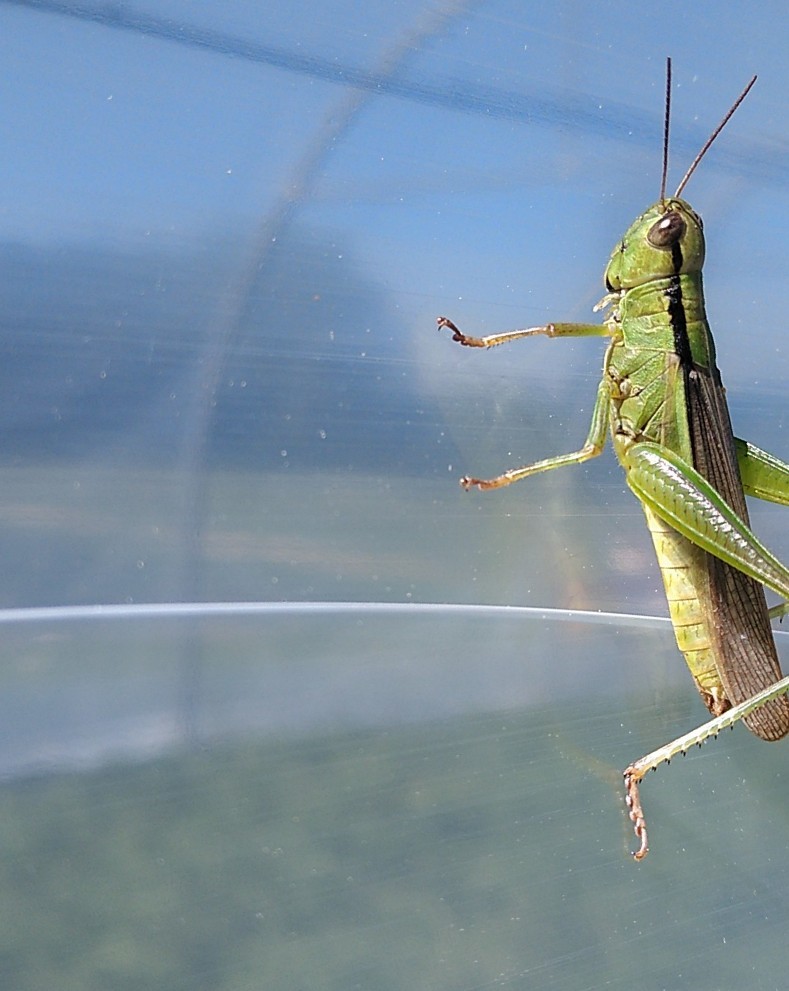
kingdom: Animalia
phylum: Arthropoda
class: Insecta
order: Orthoptera
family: Acrididae
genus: Mecostethus
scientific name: Mecostethus parapleurus
